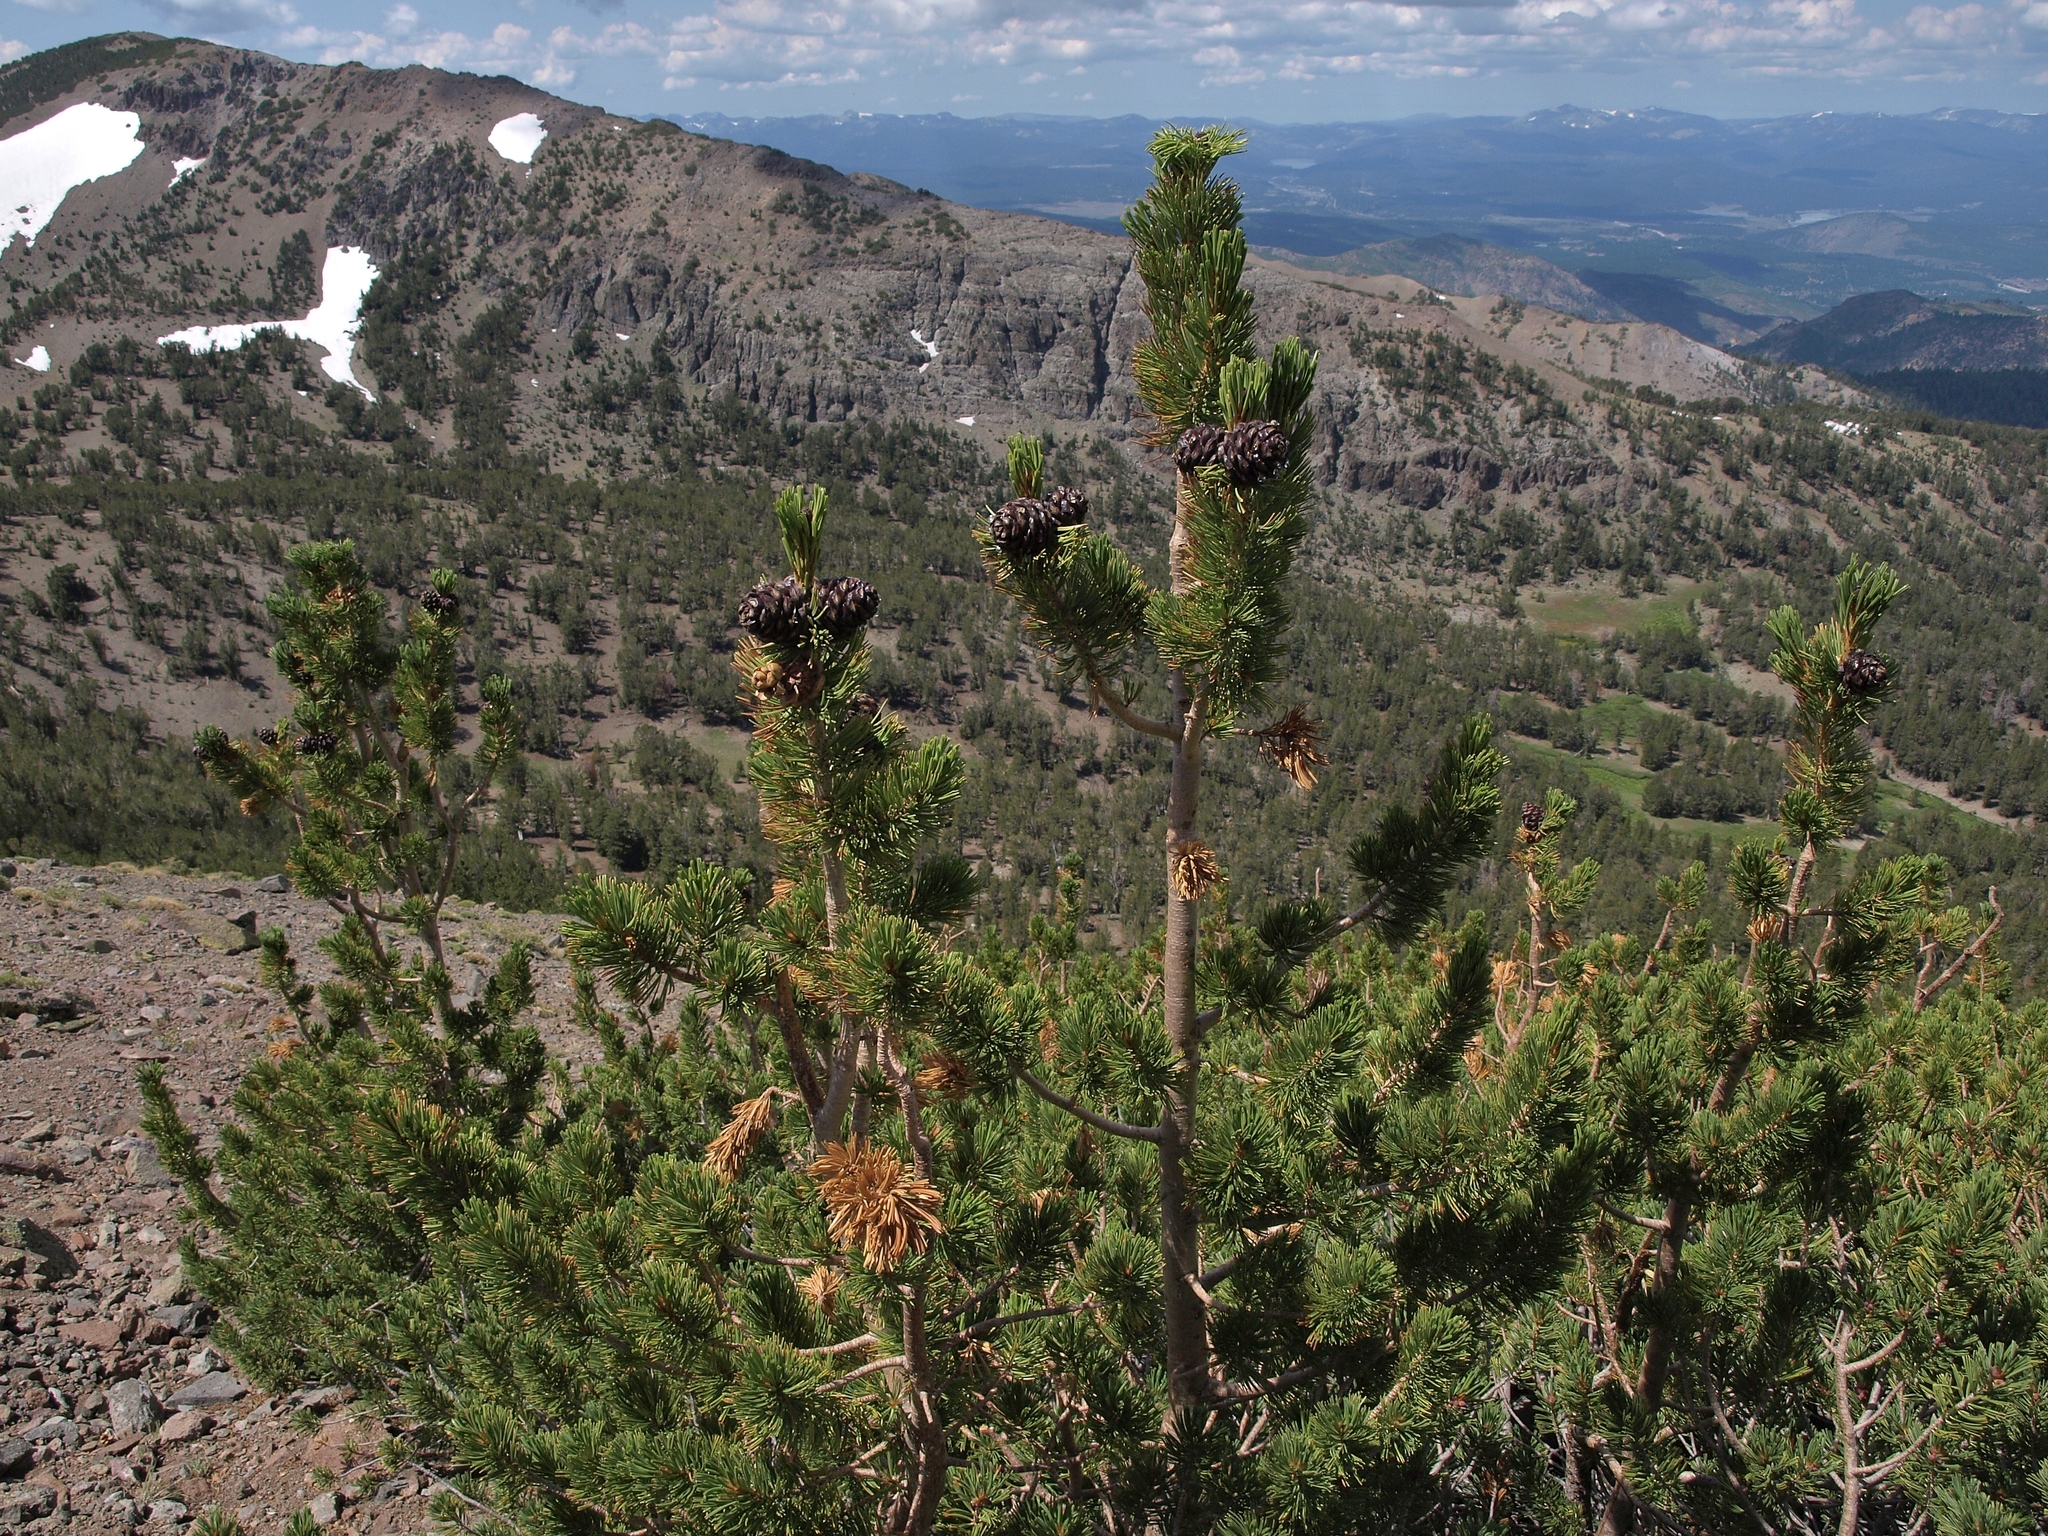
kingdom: Plantae
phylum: Tracheophyta
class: Pinopsida
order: Pinales
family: Pinaceae
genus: Pinus
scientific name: Pinus albicaulis
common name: Whitebark pine
